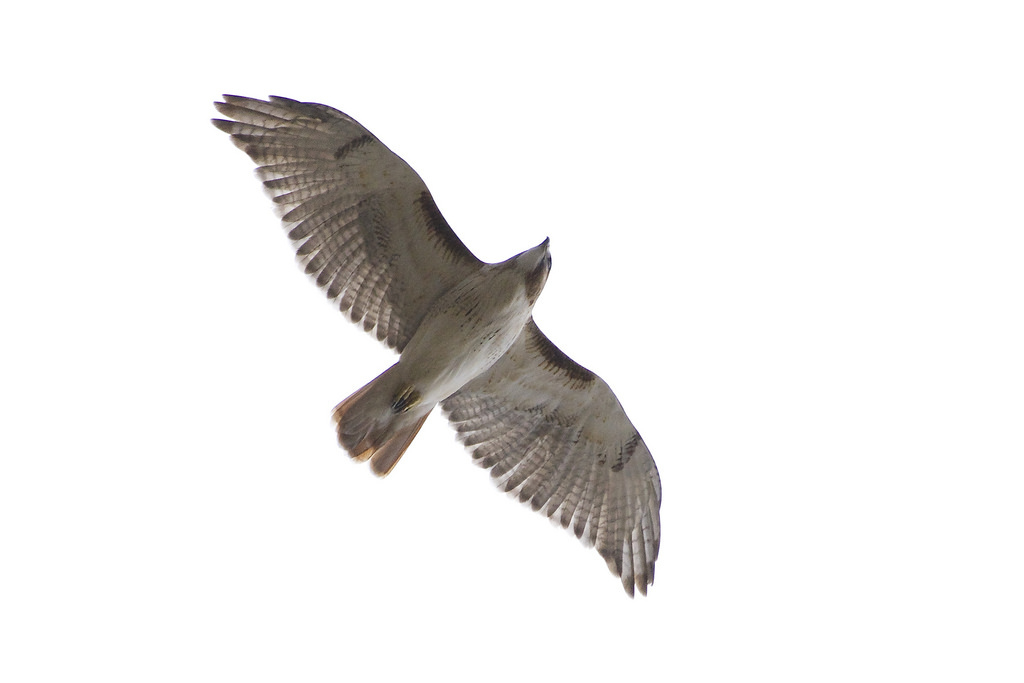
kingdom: Animalia
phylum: Chordata
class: Aves
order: Accipitriformes
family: Accipitridae
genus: Buteo
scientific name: Buteo jamaicensis
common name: Red-tailed hawk
